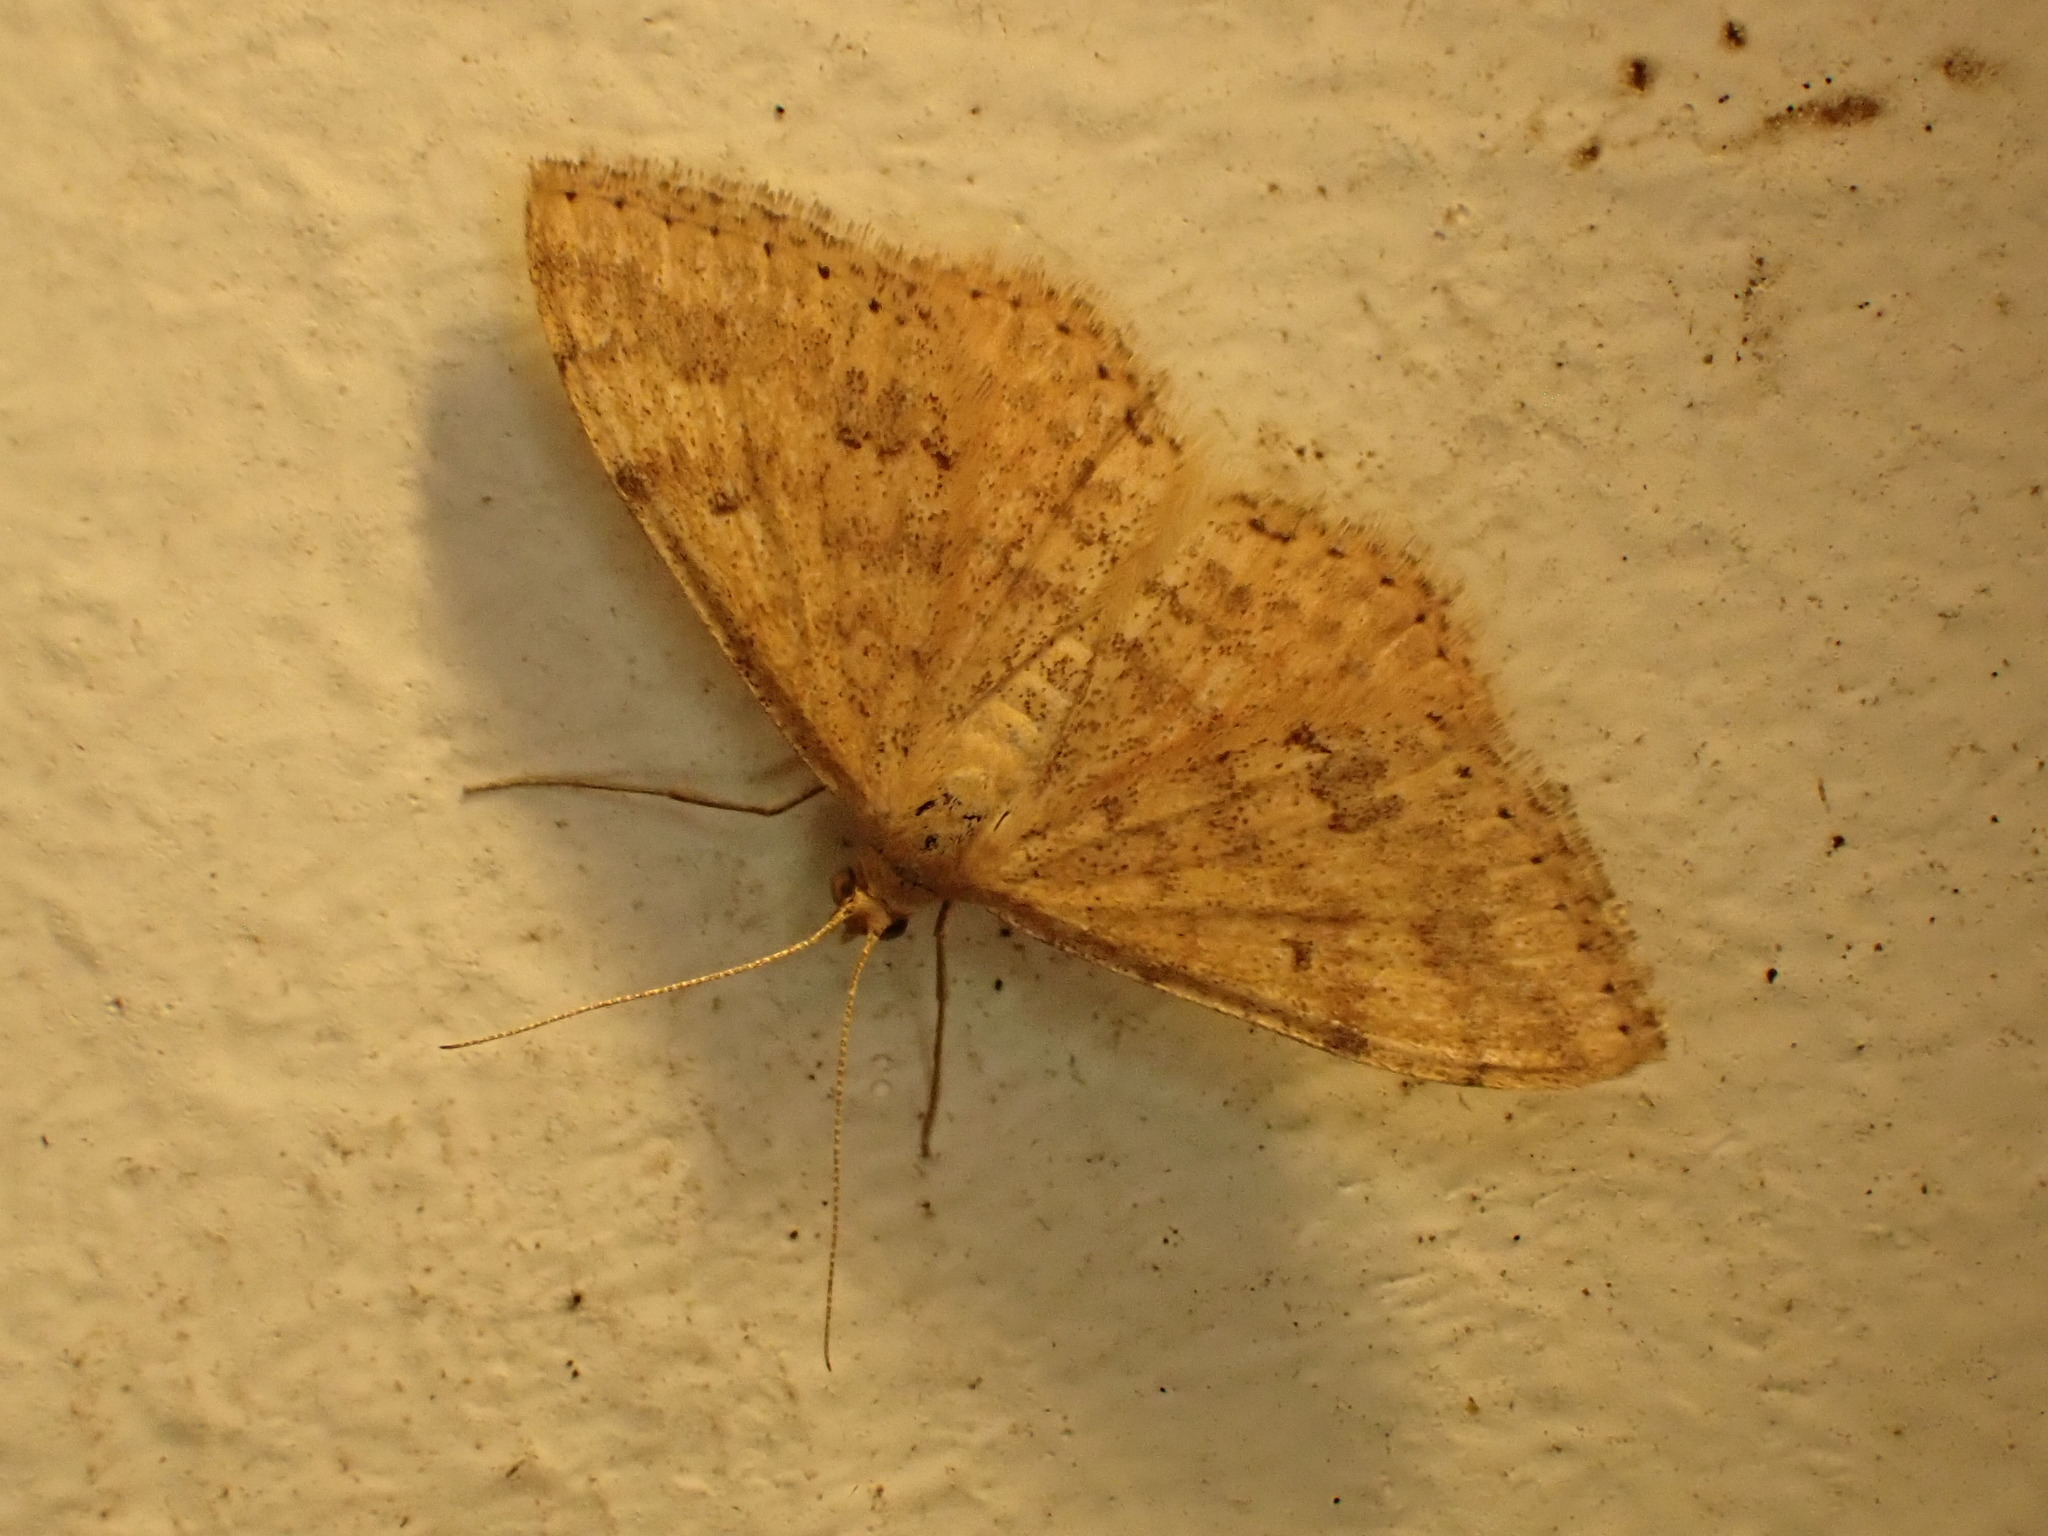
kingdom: Animalia
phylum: Arthropoda
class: Insecta
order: Lepidoptera
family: Geometridae
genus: Scopula
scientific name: Scopula rubraria
